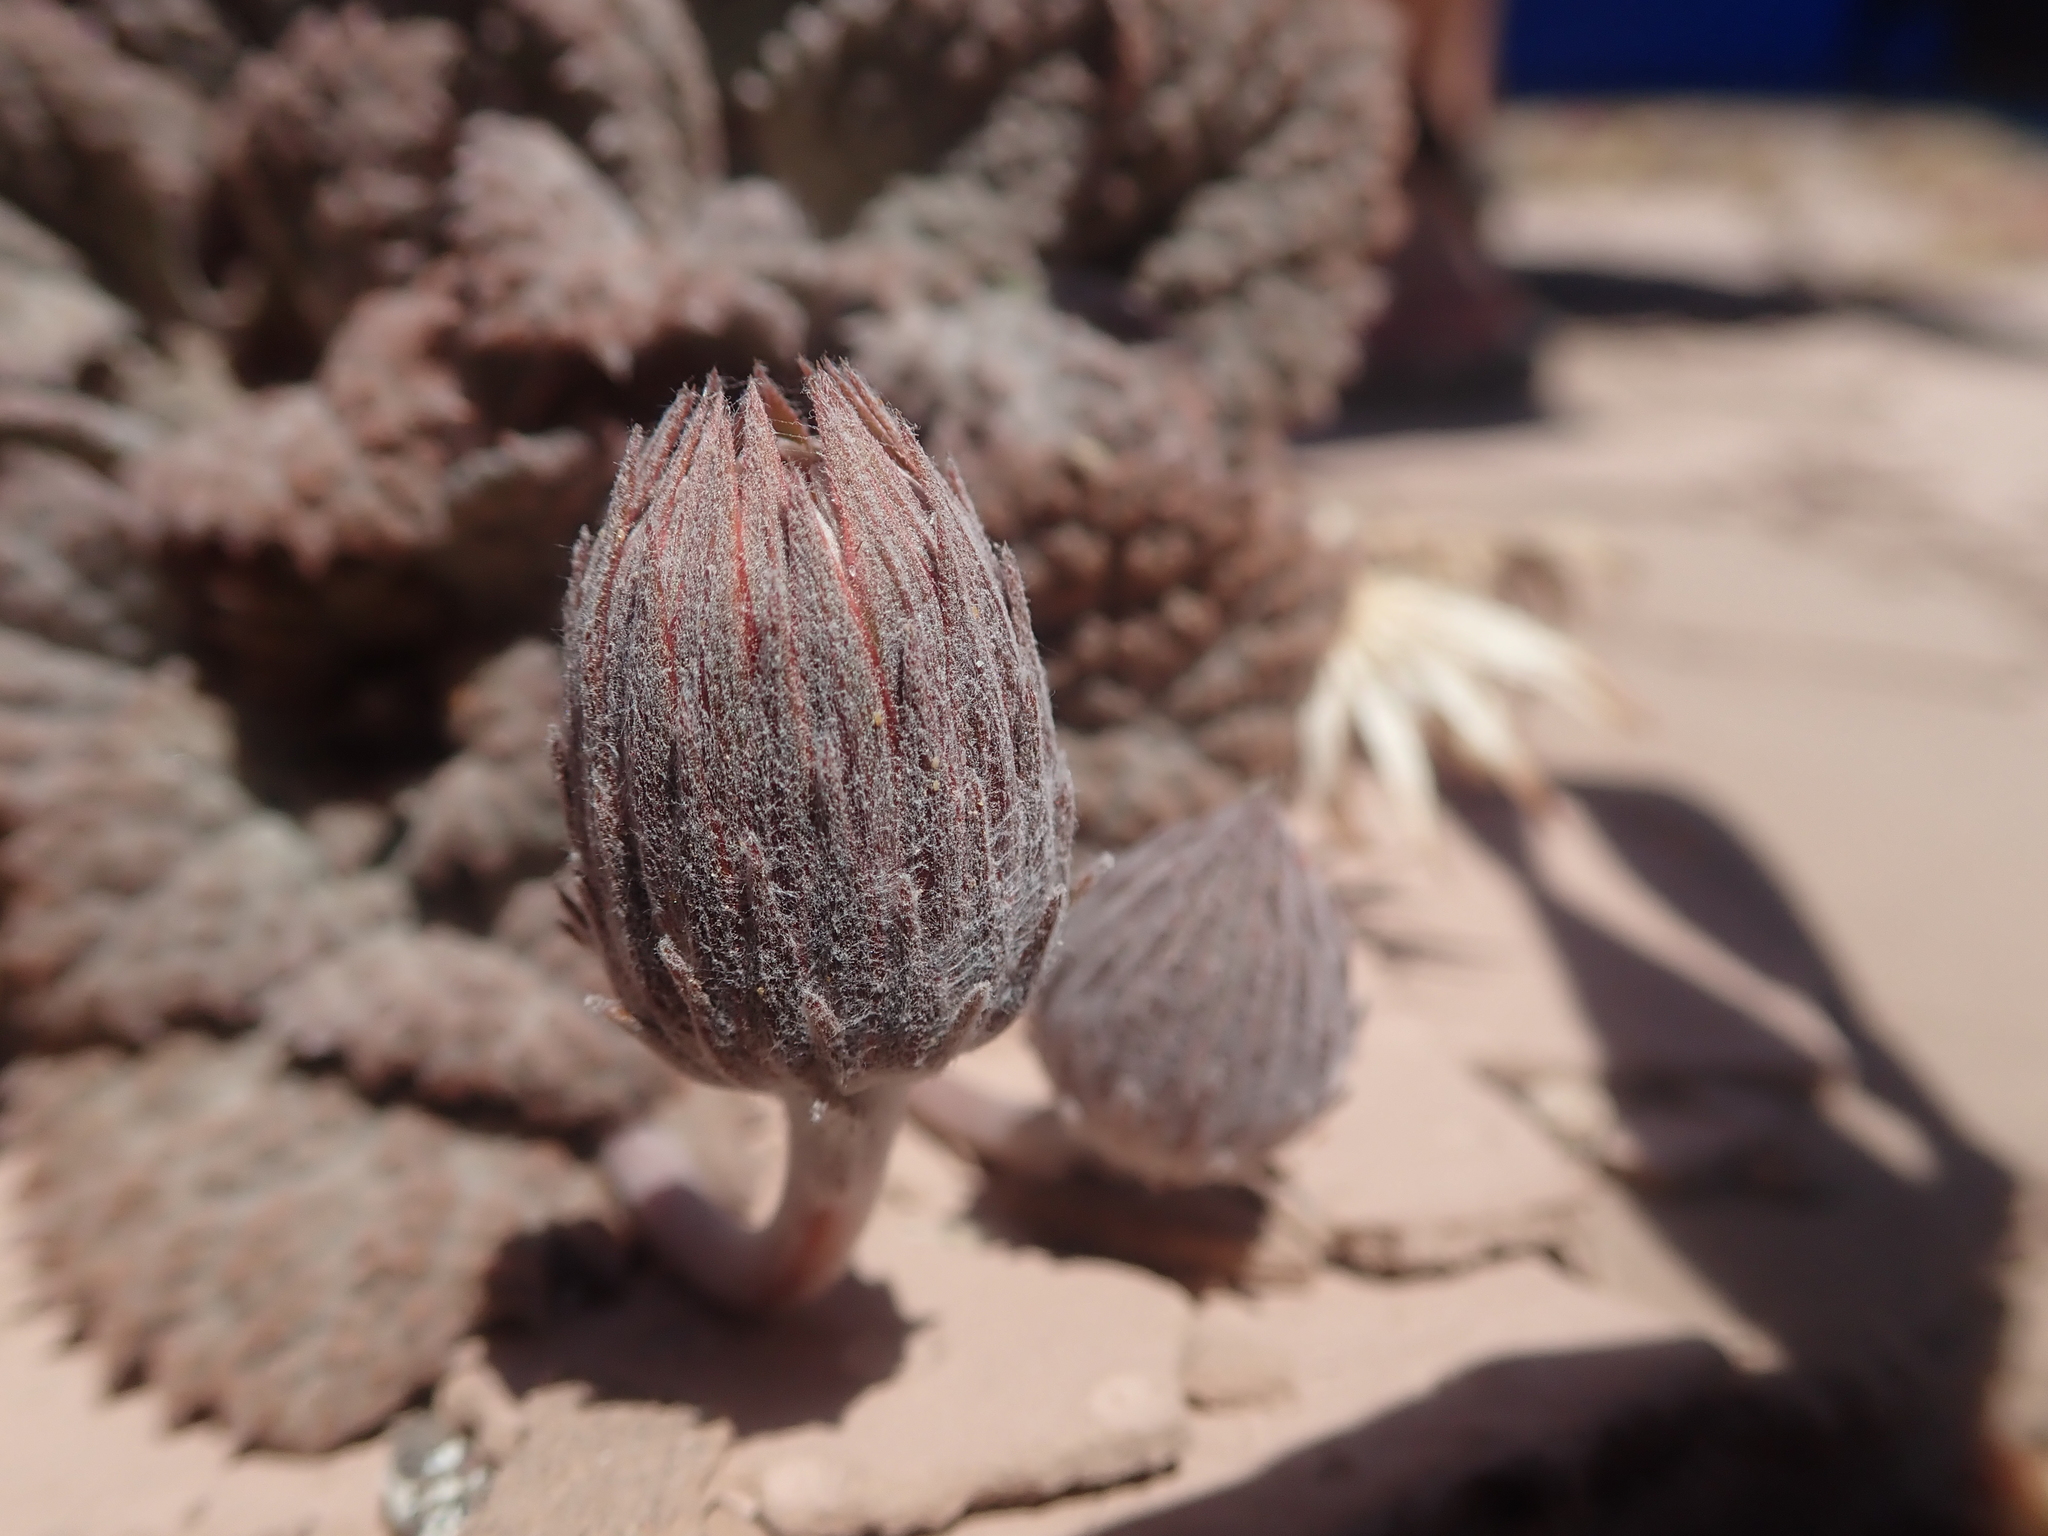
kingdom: Plantae
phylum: Tracheophyta
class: Magnoliopsida
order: Asterales
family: Asteraceae
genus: Urmenetea
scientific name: Urmenetea atacamensis
